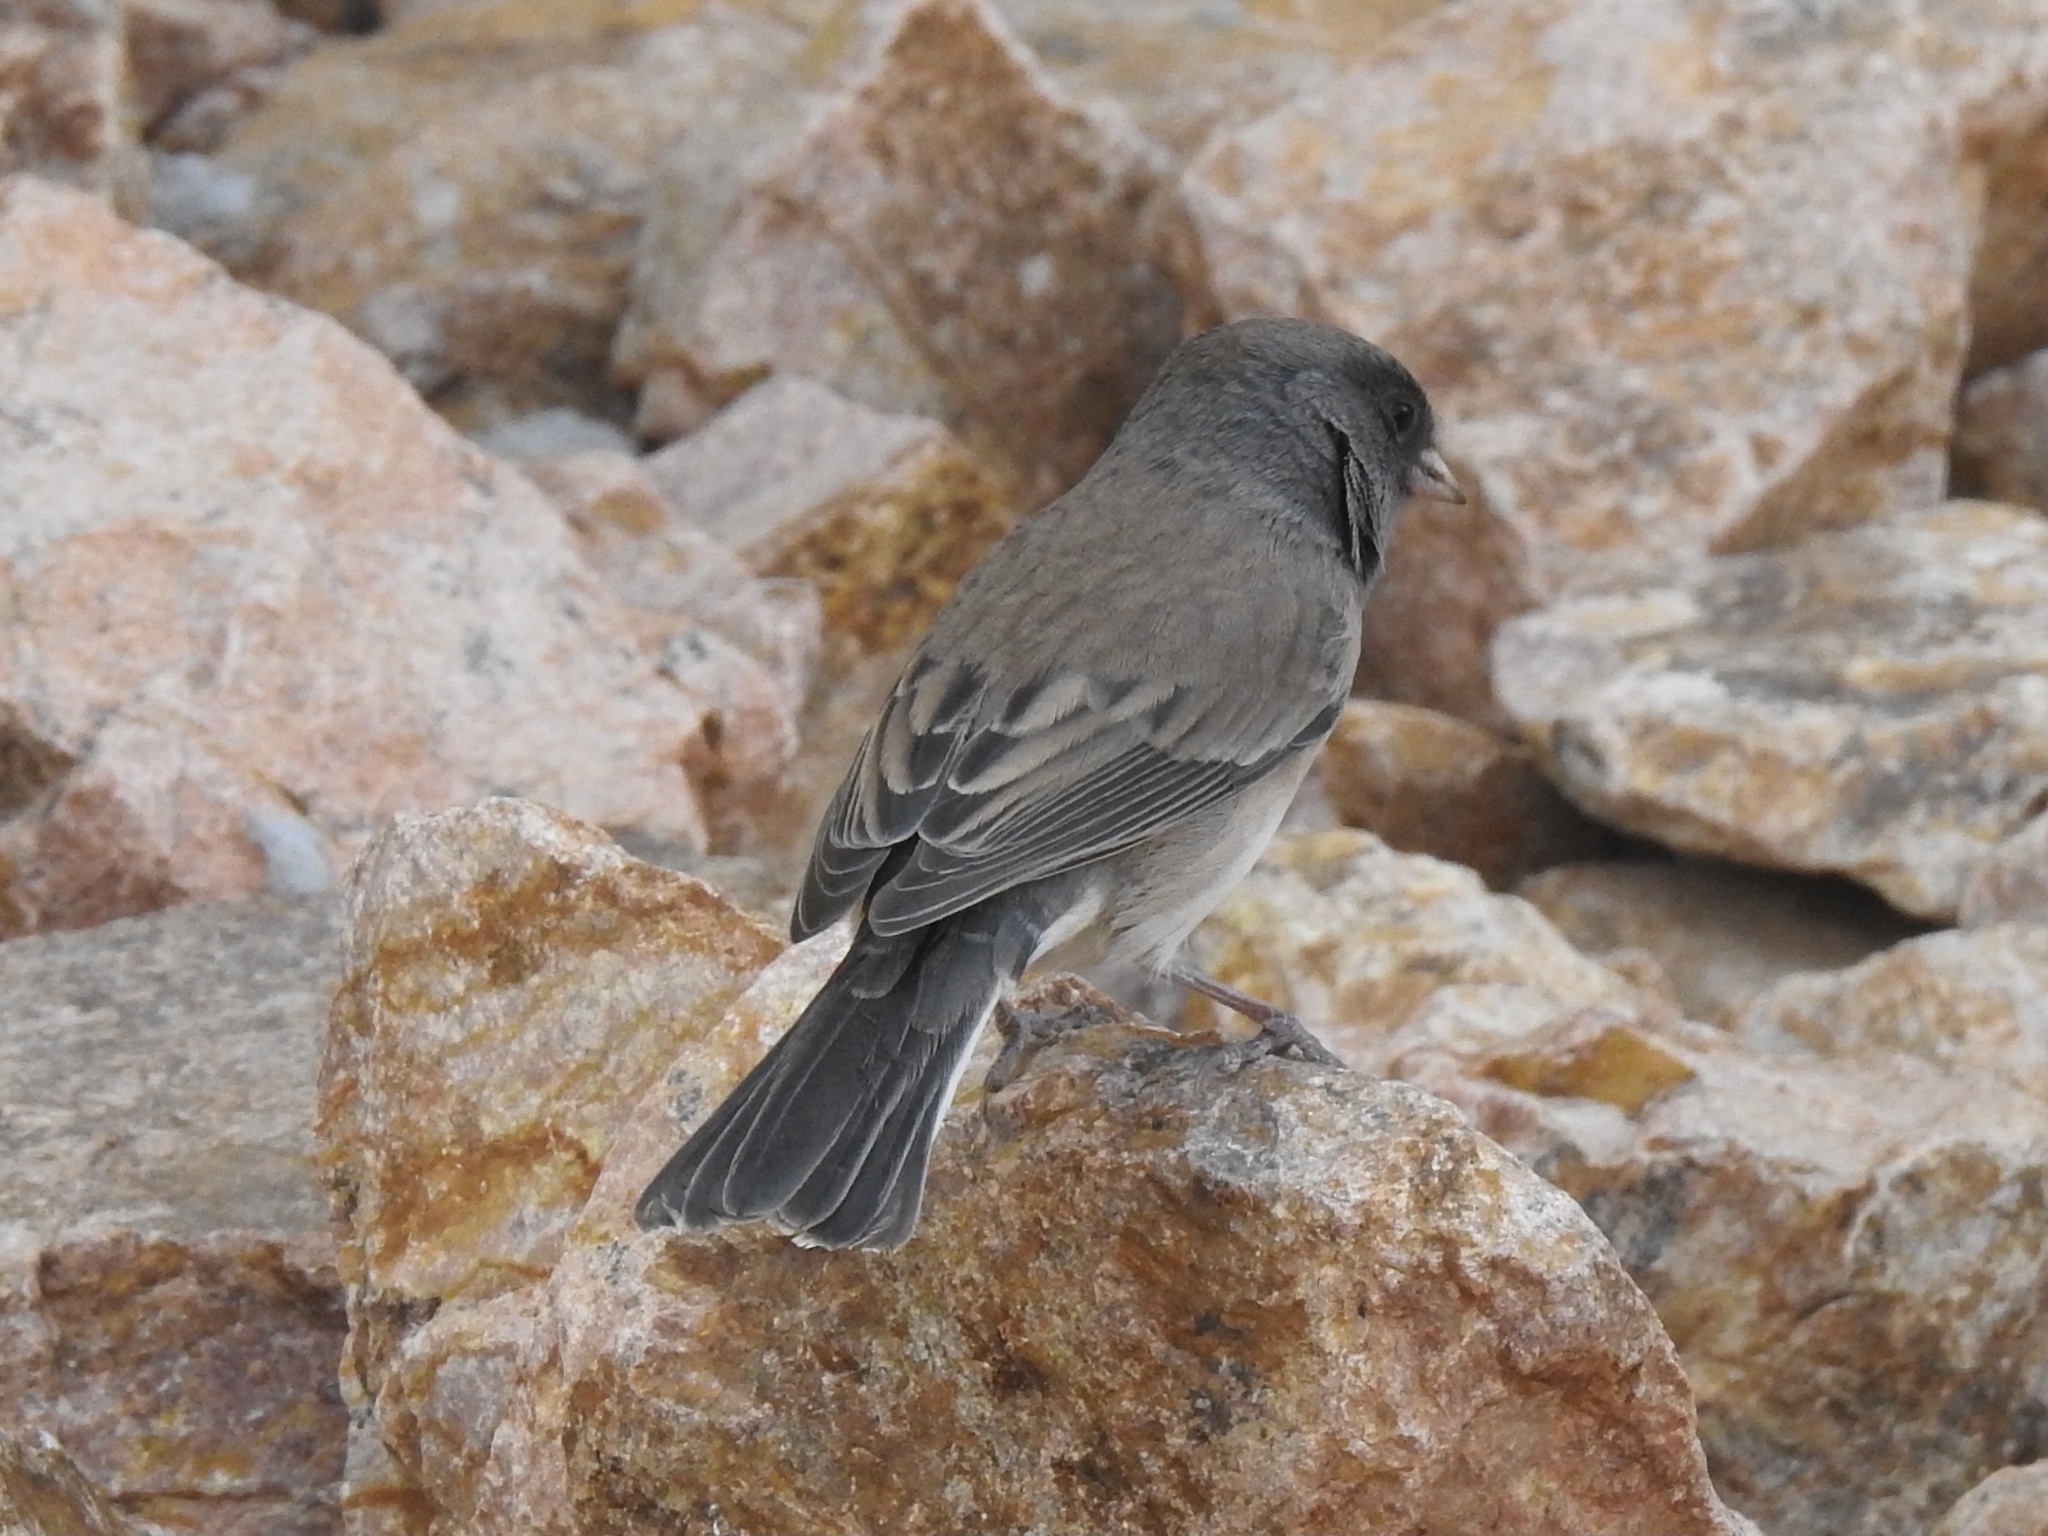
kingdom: Animalia
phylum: Chordata
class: Aves
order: Passeriformes
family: Passerellidae
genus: Junco
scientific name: Junco hyemalis
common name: Dark-eyed junco
